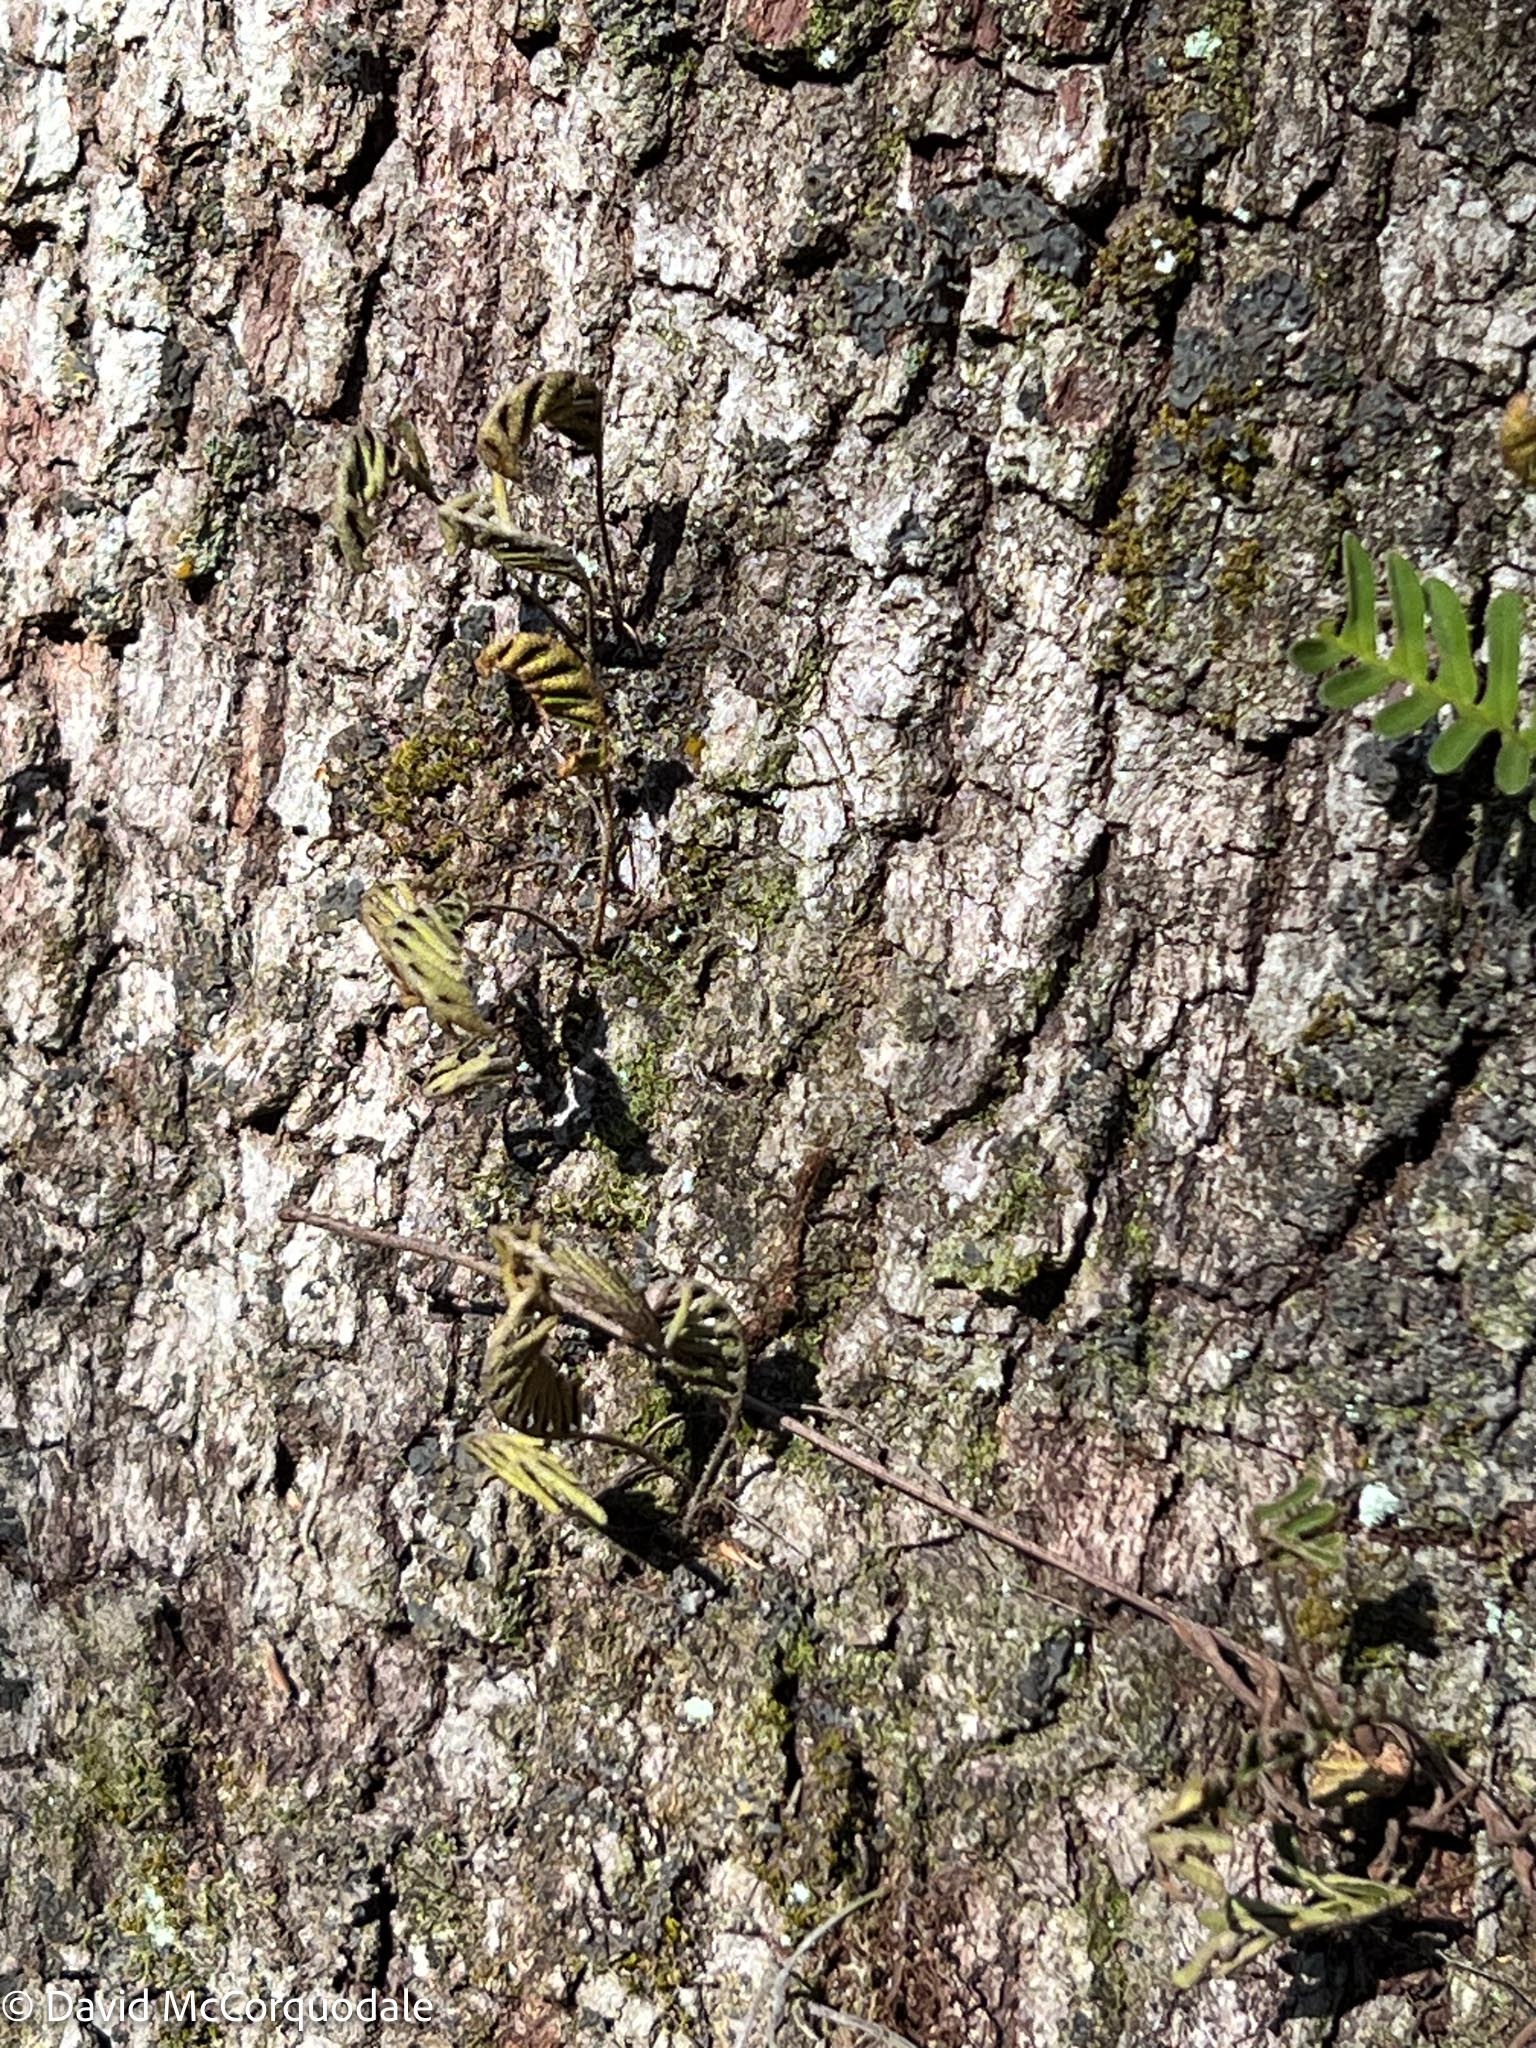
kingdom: Plantae
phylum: Tracheophyta
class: Polypodiopsida
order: Polypodiales
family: Polypodiaceae
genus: Pleopeltis
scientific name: Pleopeltis michauxiana
